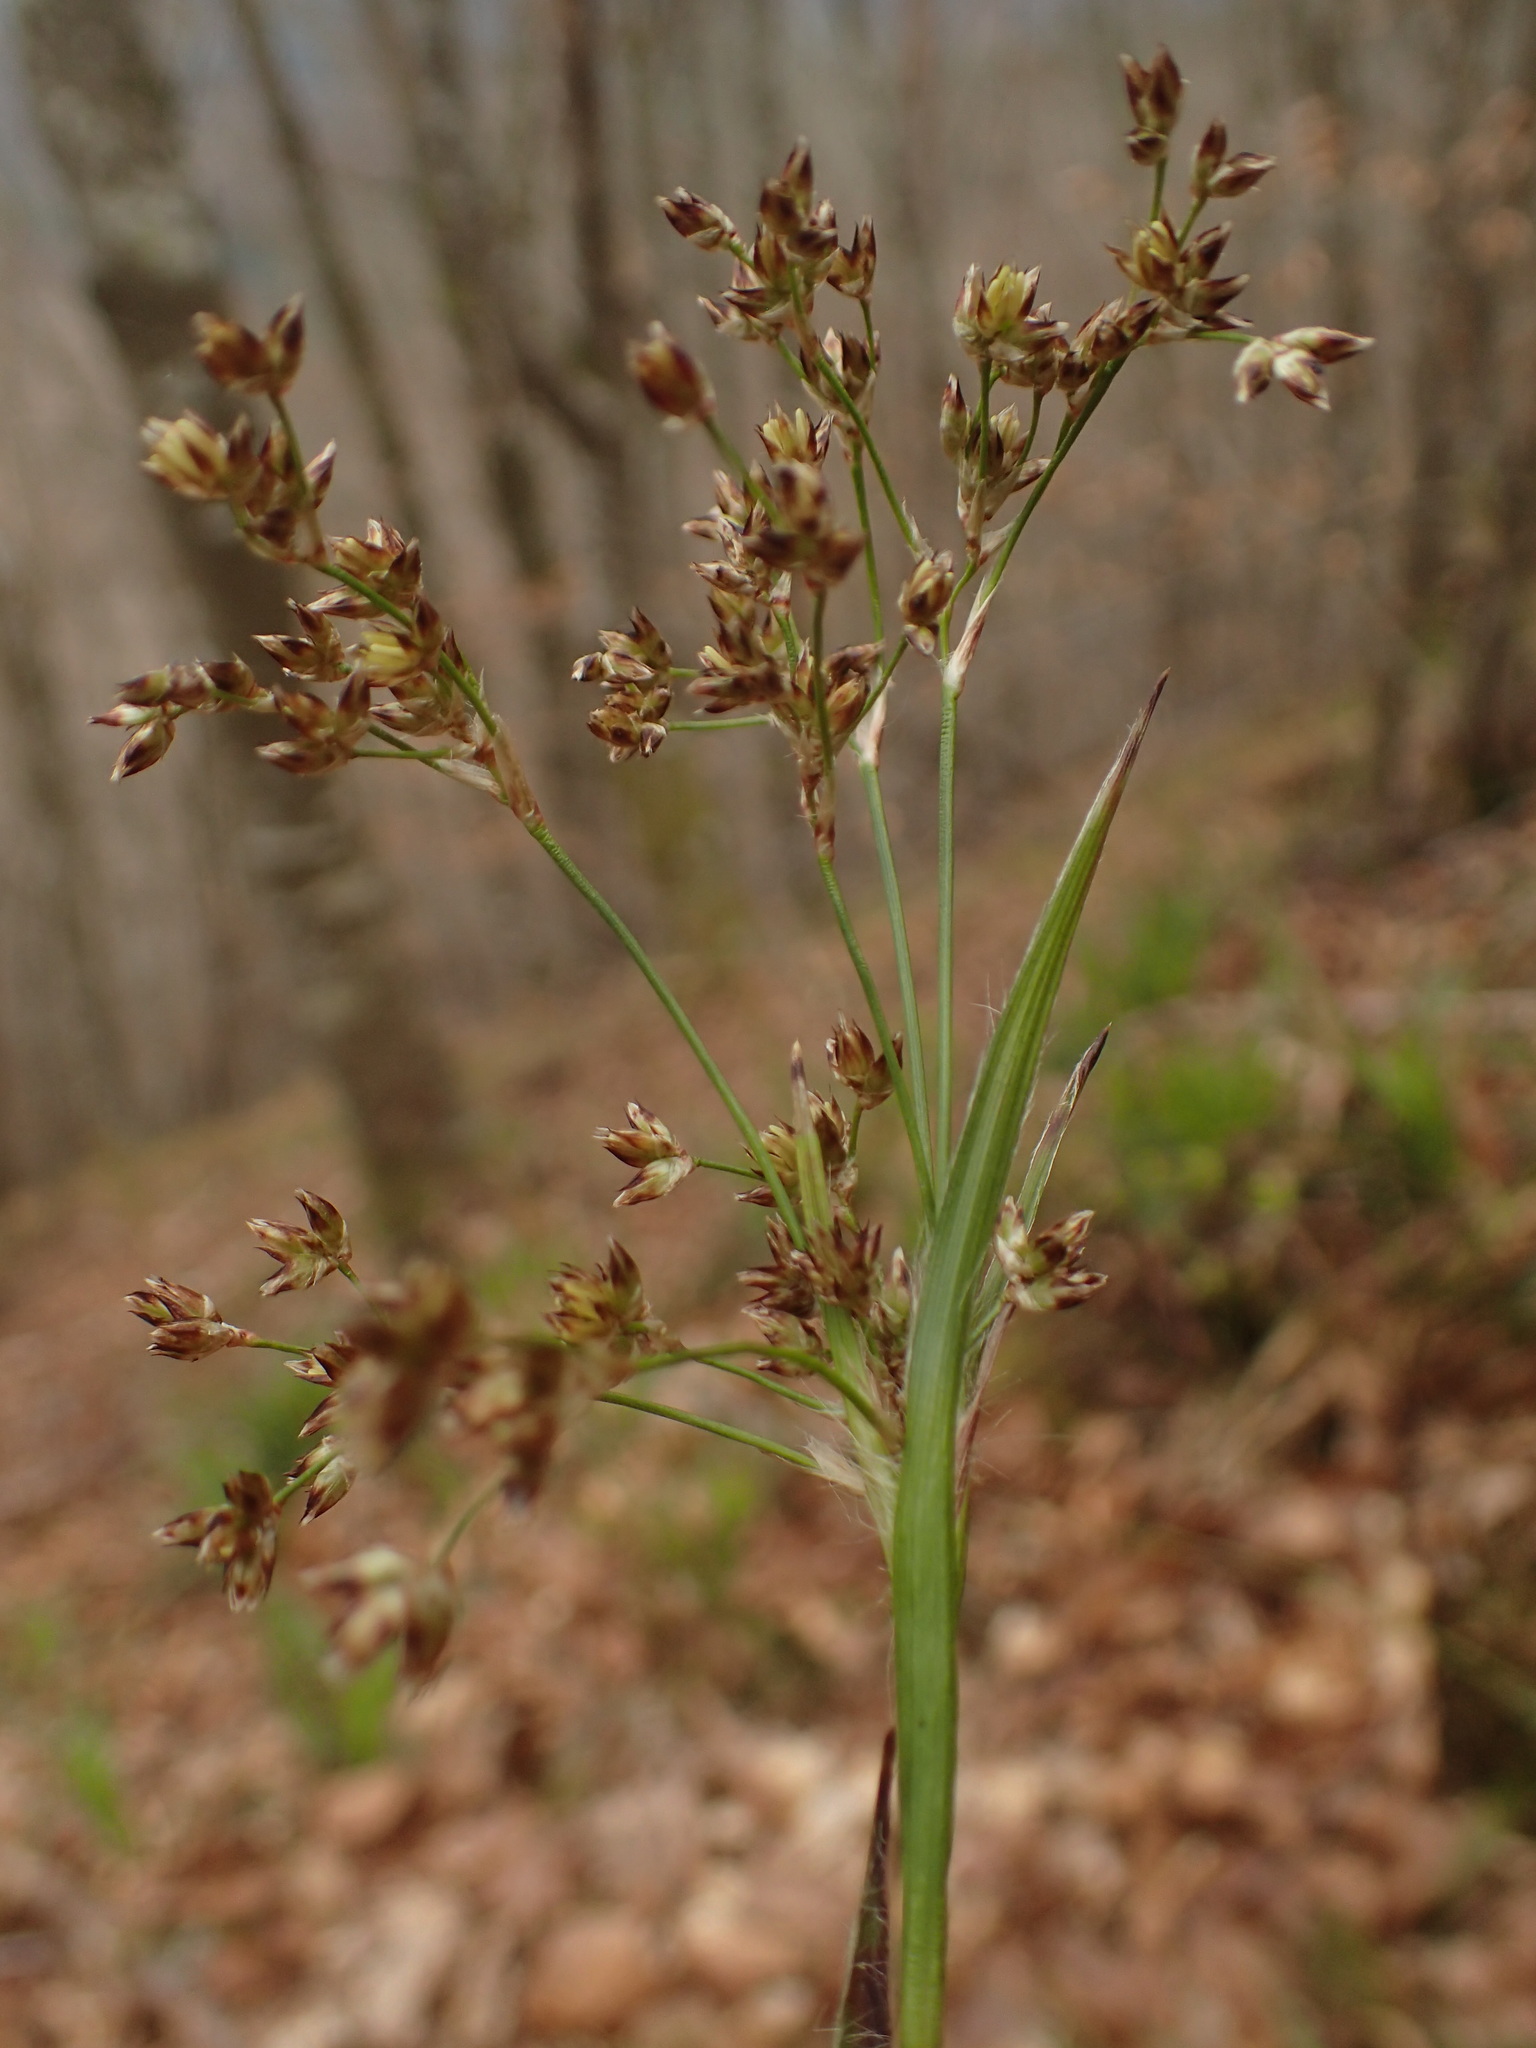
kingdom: Plantae
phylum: Tracheophyta
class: Liliopsida
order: Poales
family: Juncaceae
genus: Luzula
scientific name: Luzula sylvatica
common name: Great wood-rush
